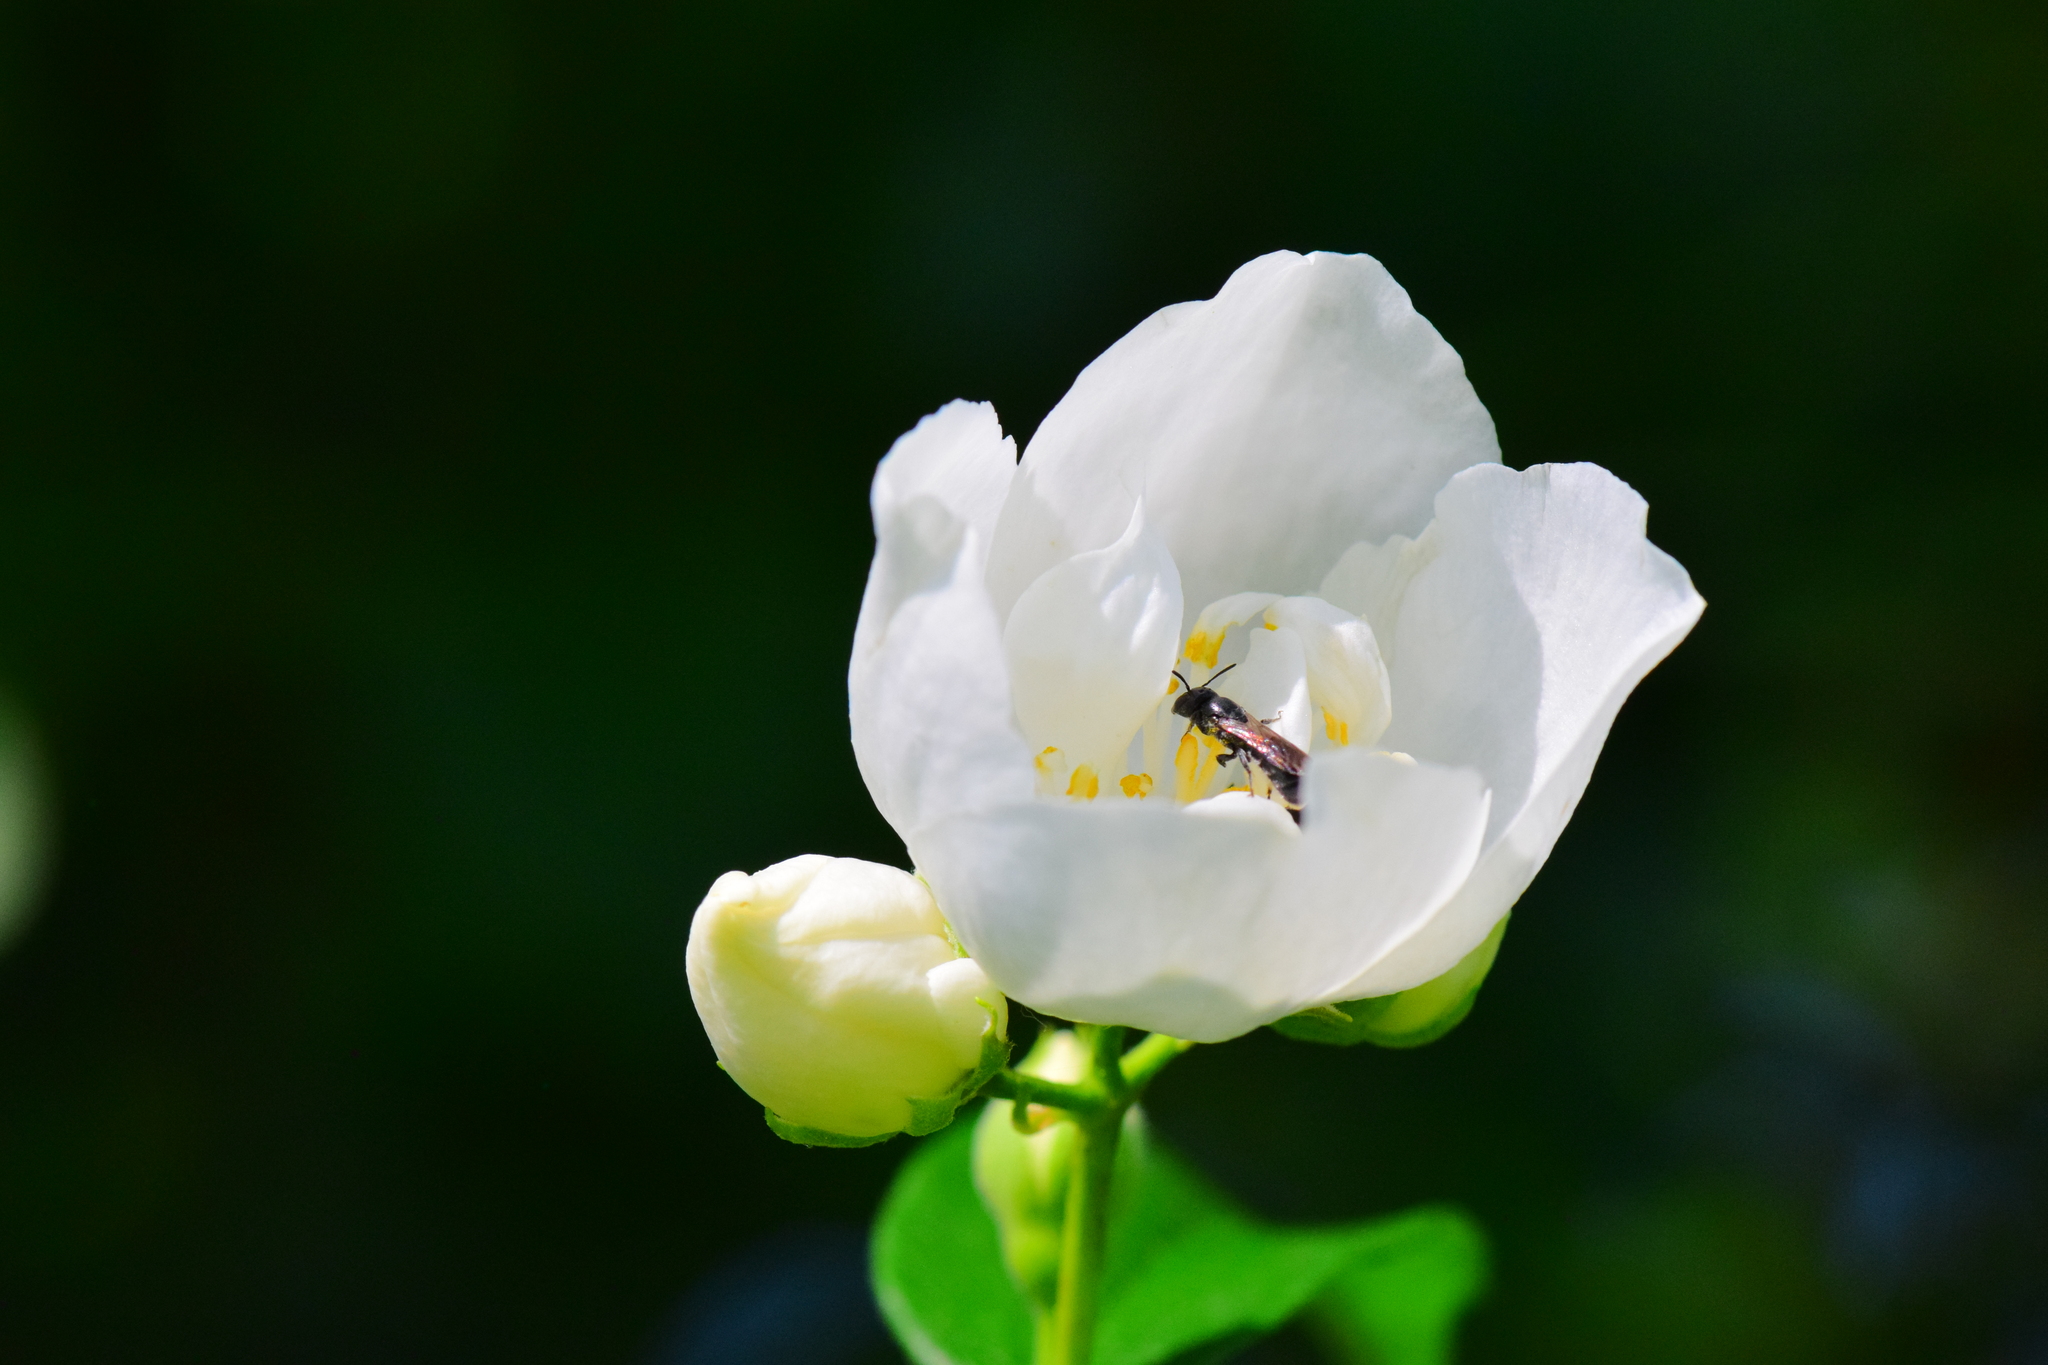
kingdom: Animalia
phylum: Arthropoda
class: Insecta
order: Hymenoptera
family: Megachilidae
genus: Chelostoma
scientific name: Chelostoma philadelphi
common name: Mock-orange scissor bee
